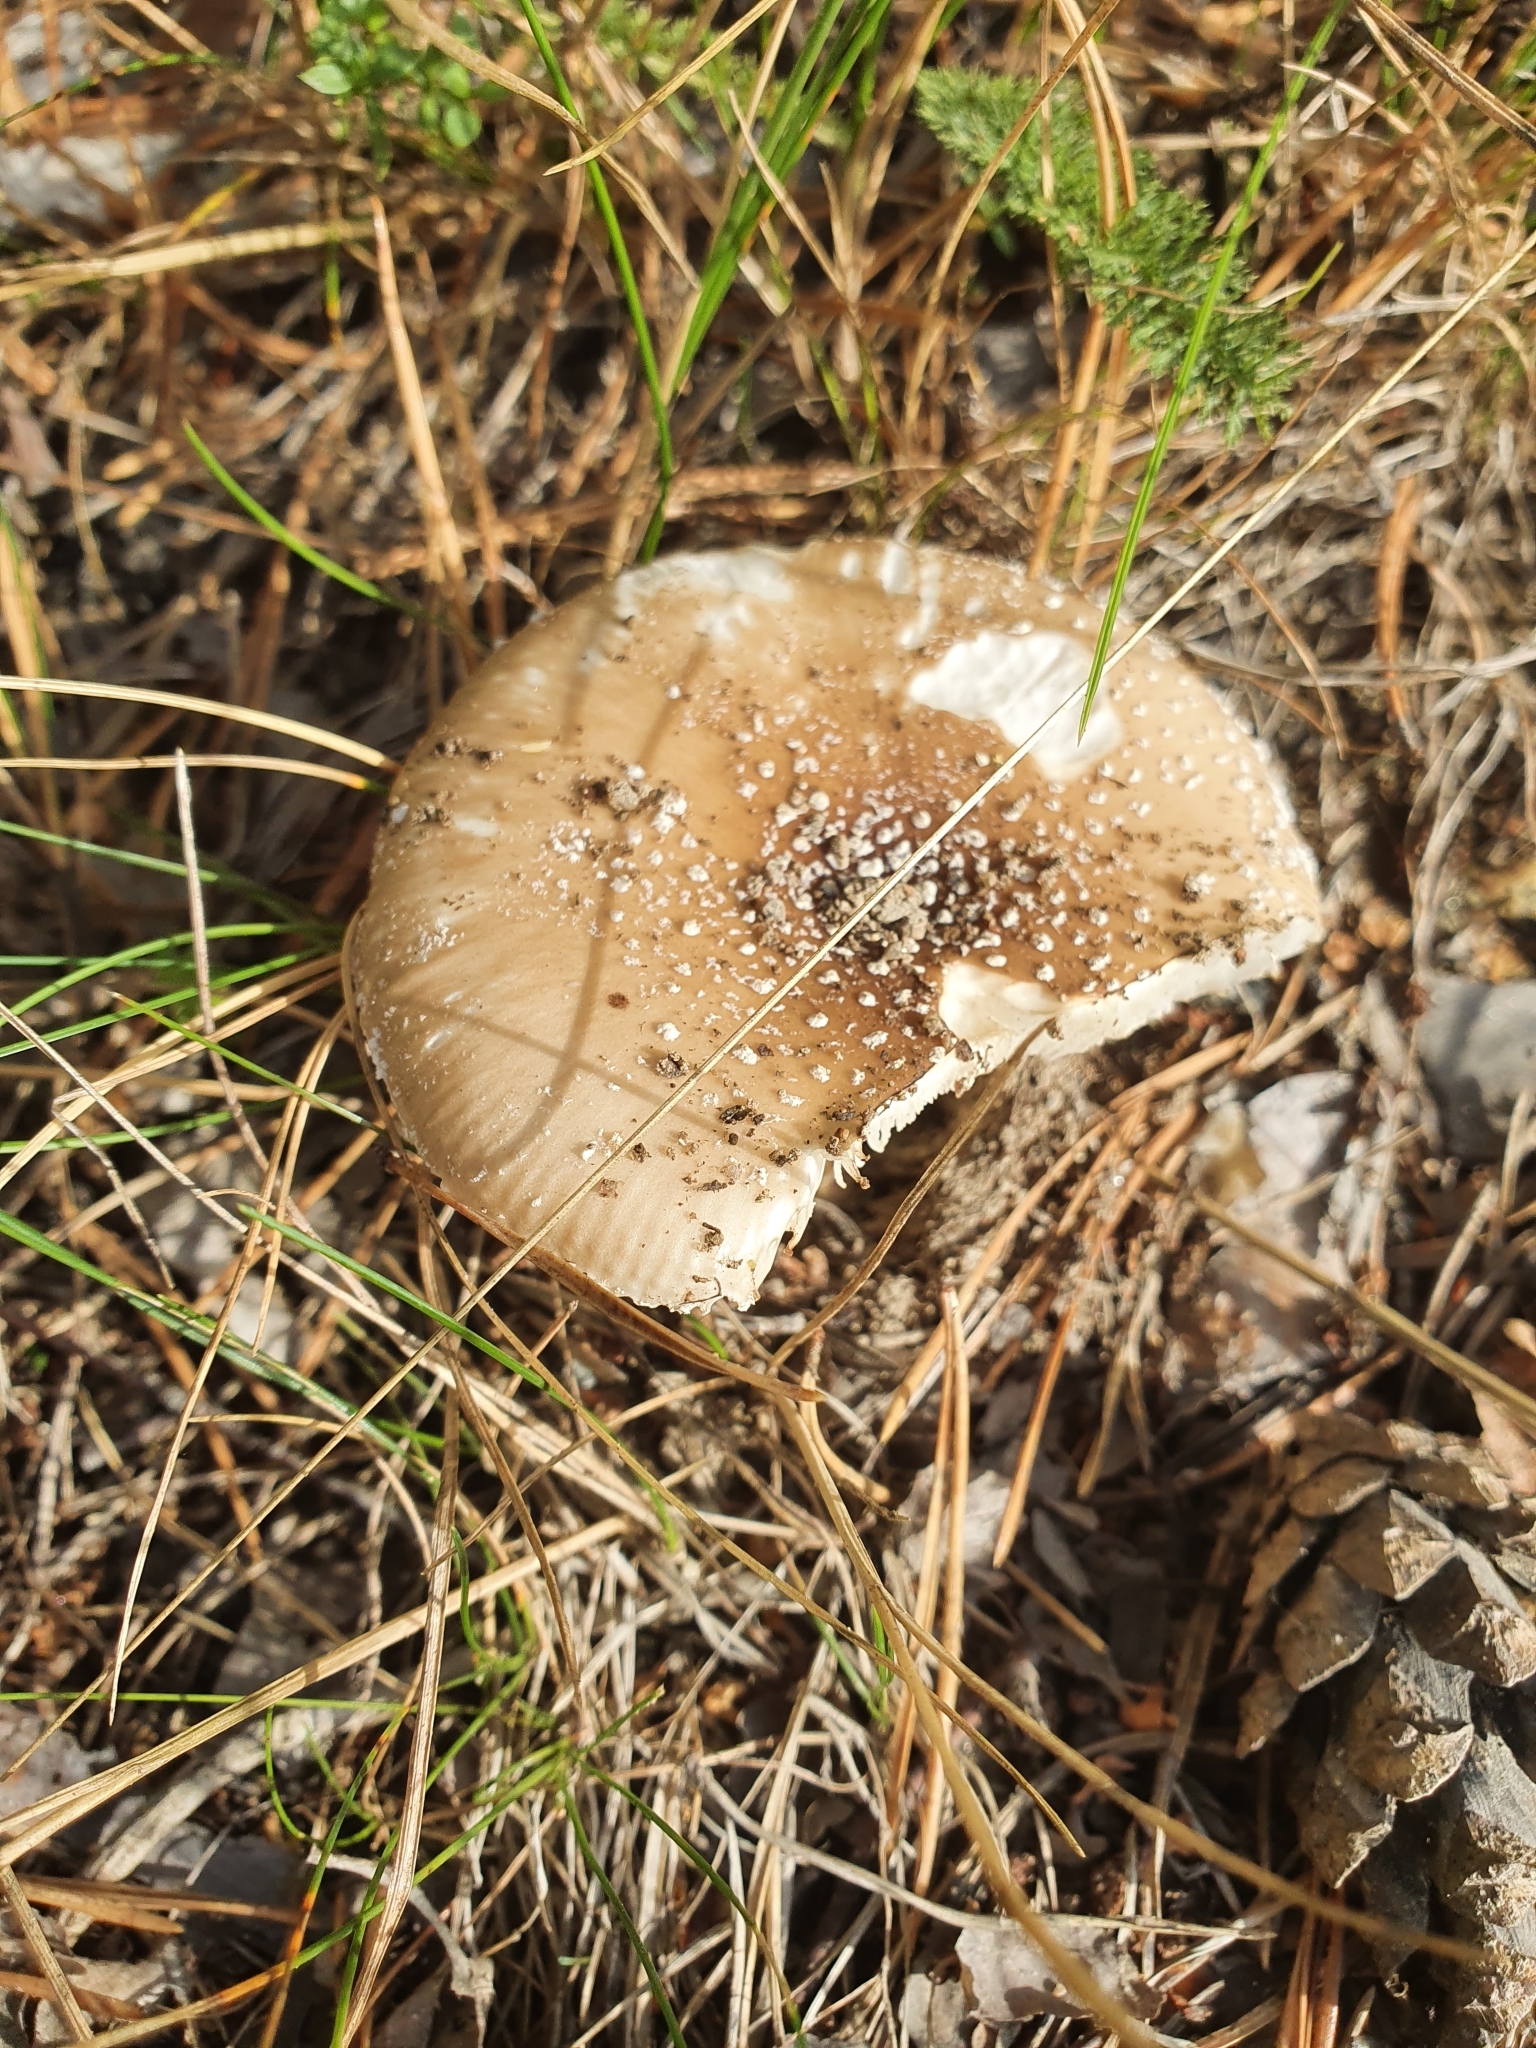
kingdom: Fungi
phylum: Basidiomycota
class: Agaricomycetes
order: Agaricales
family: Amanitaceae
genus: Amanita
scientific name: Amanita pantherina
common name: Panthercap
